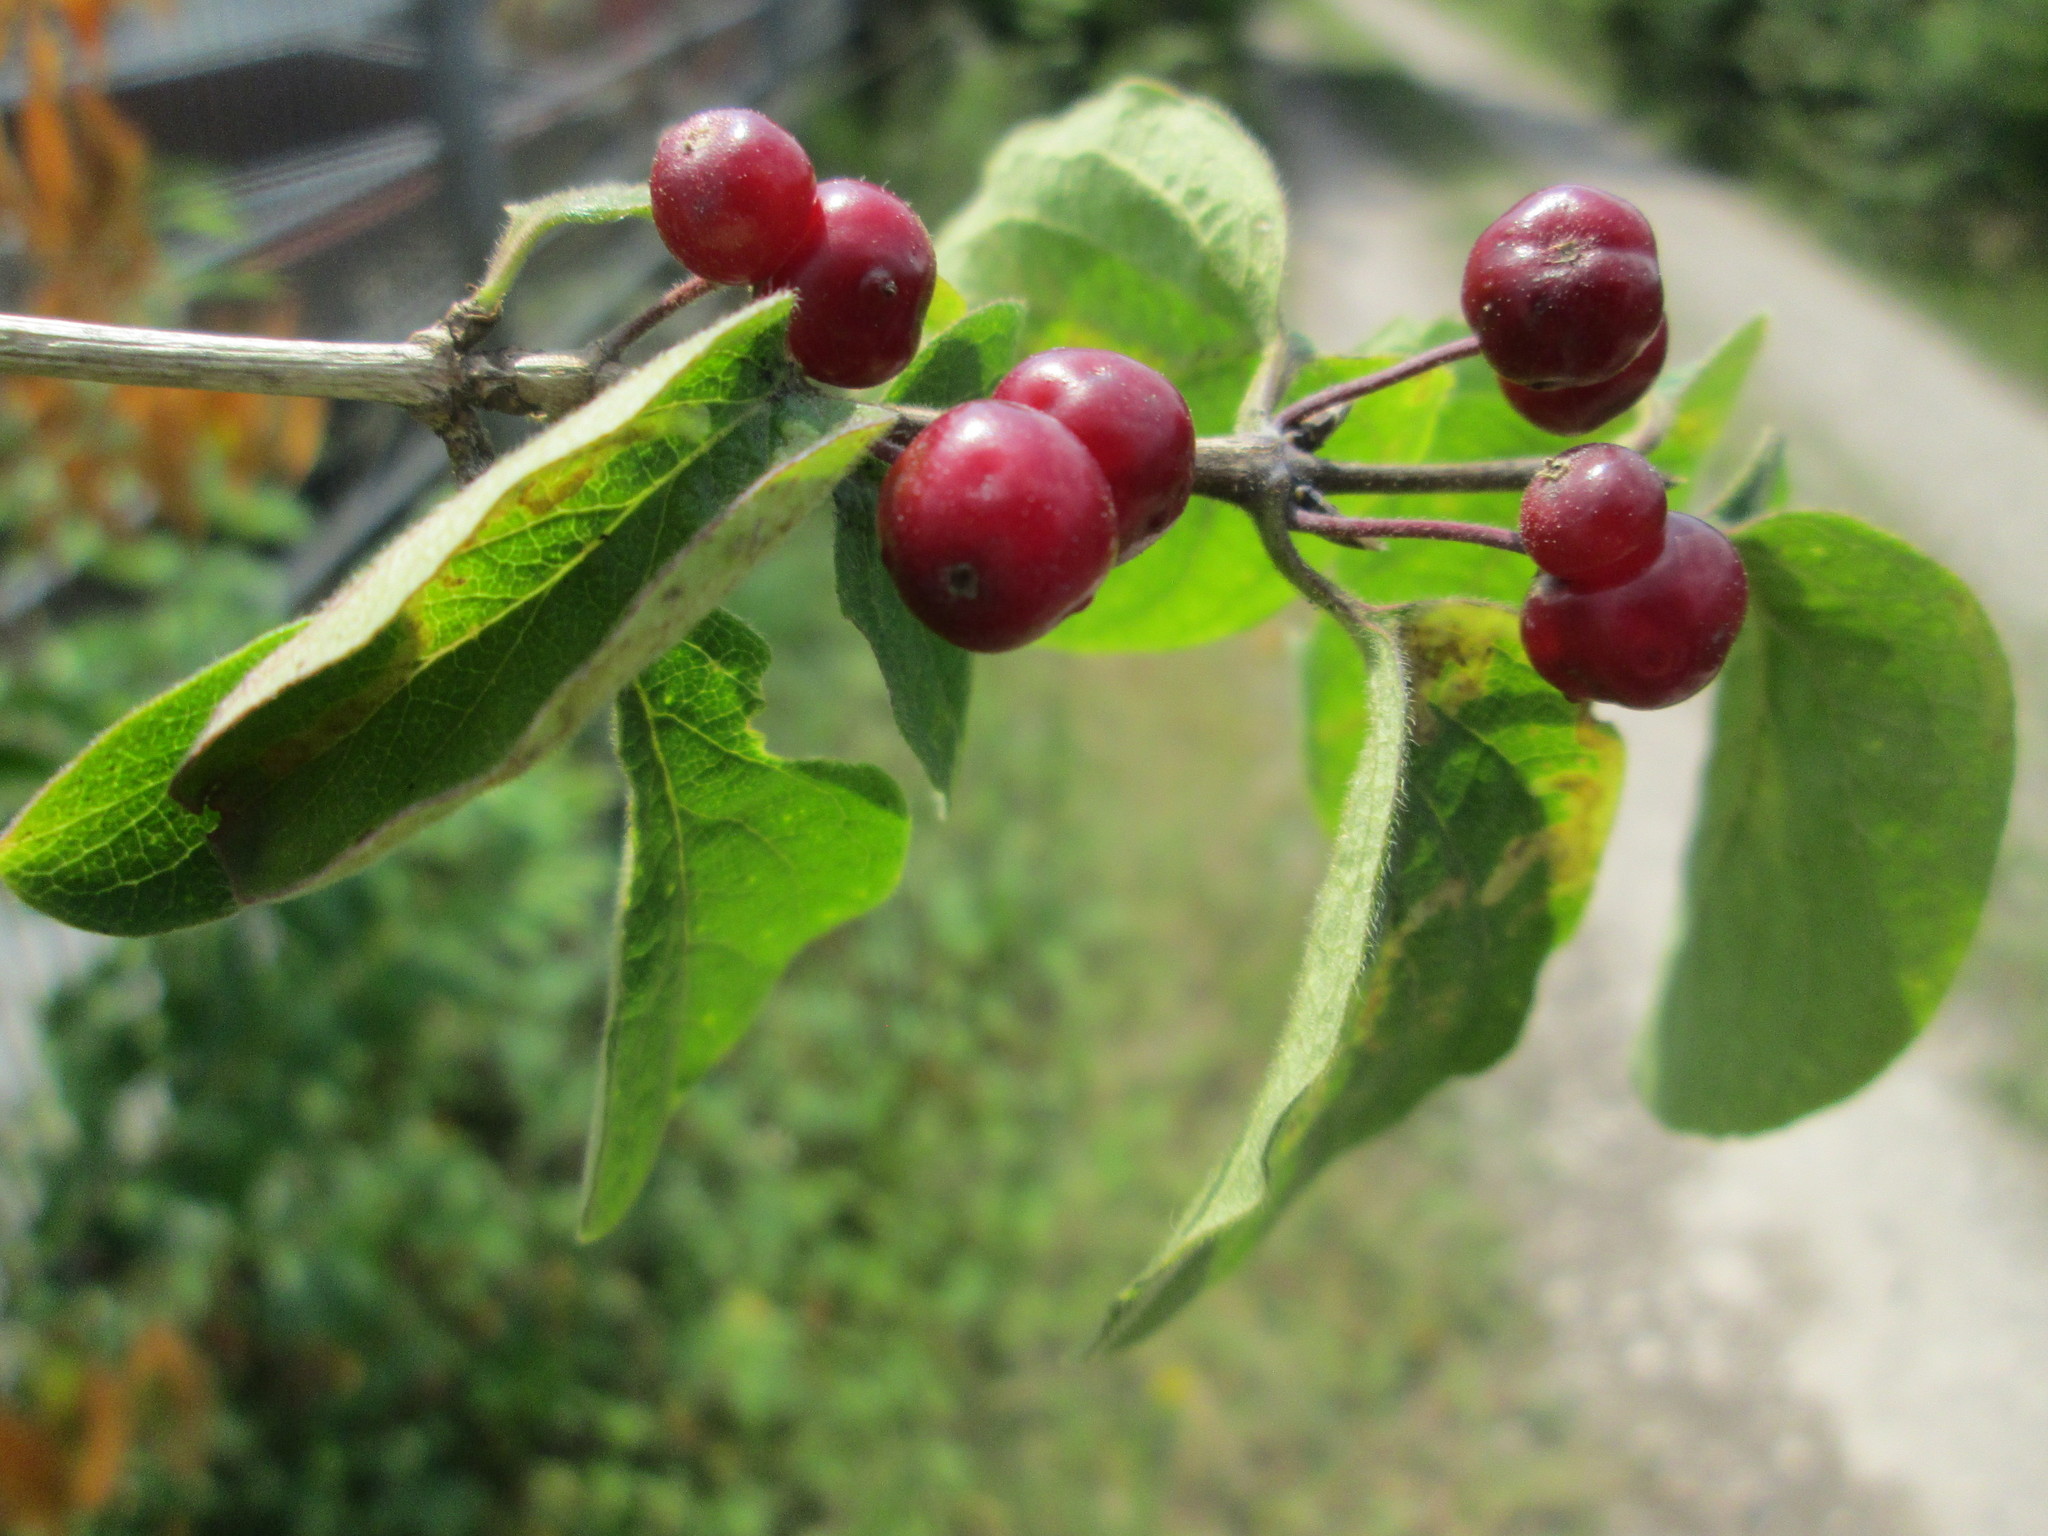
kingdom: Plantae
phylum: Tracheophyta
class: Magnoliopsida
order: Dipsacales
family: Caprifoliaceae
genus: Lonicera
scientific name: Lonicera xylosteum
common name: Fly honeysuckle
